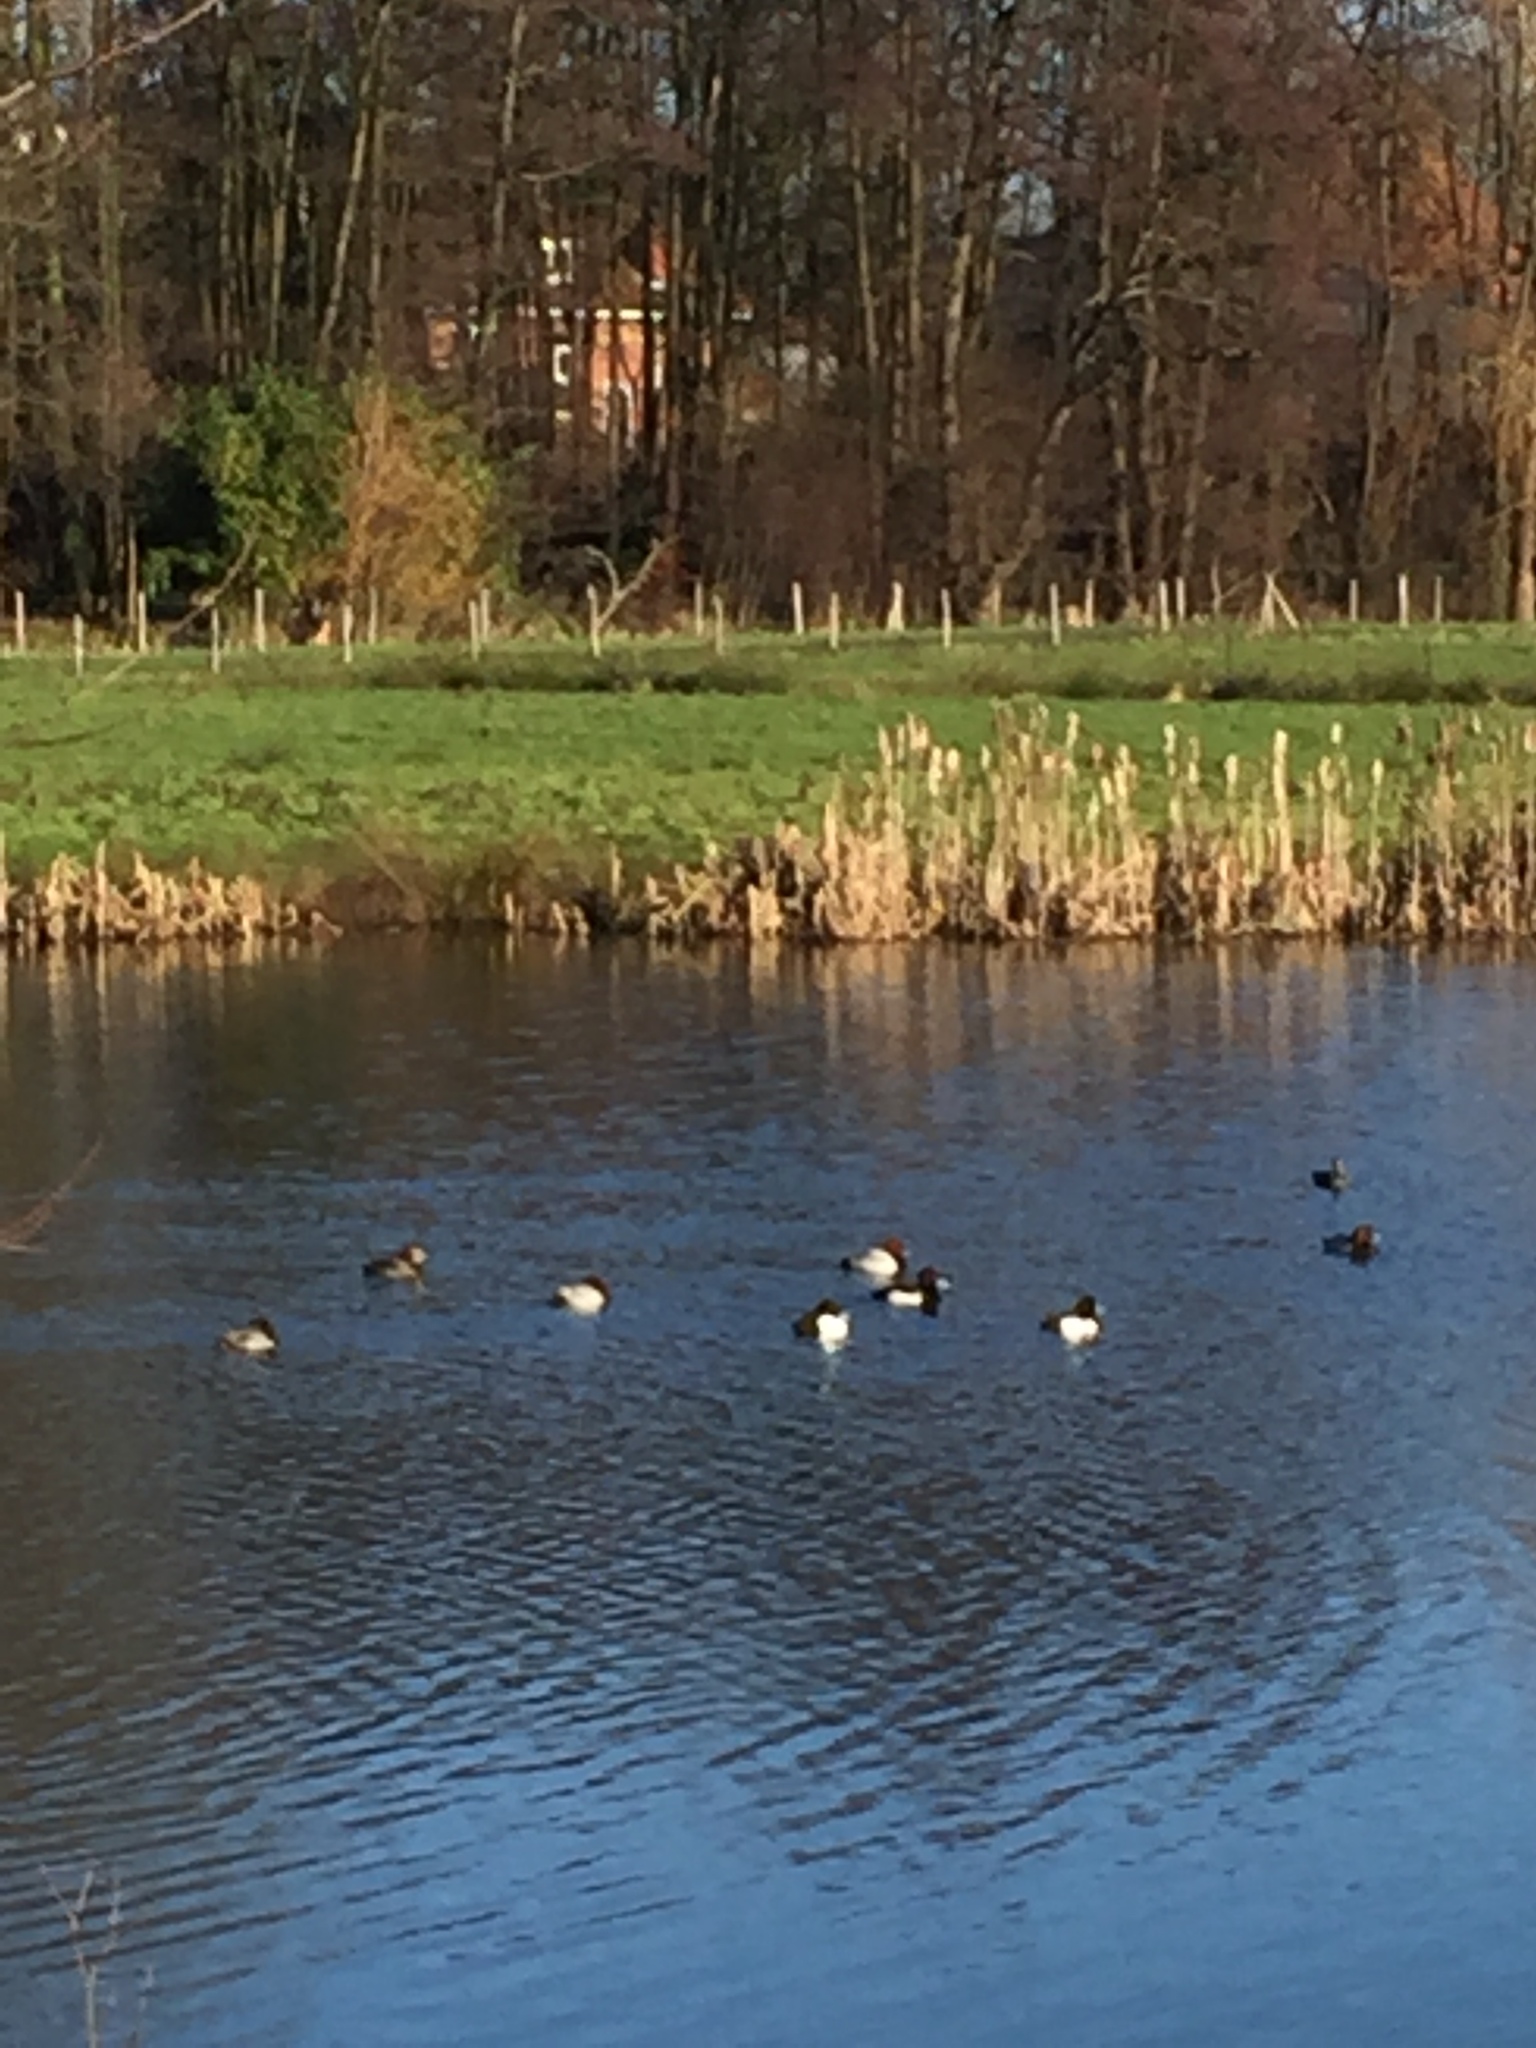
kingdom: Animalia
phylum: Chordata
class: Aves
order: Anseriformes
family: Anatidae
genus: Aythya
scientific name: Aythya fuligula
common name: Tufted duck
